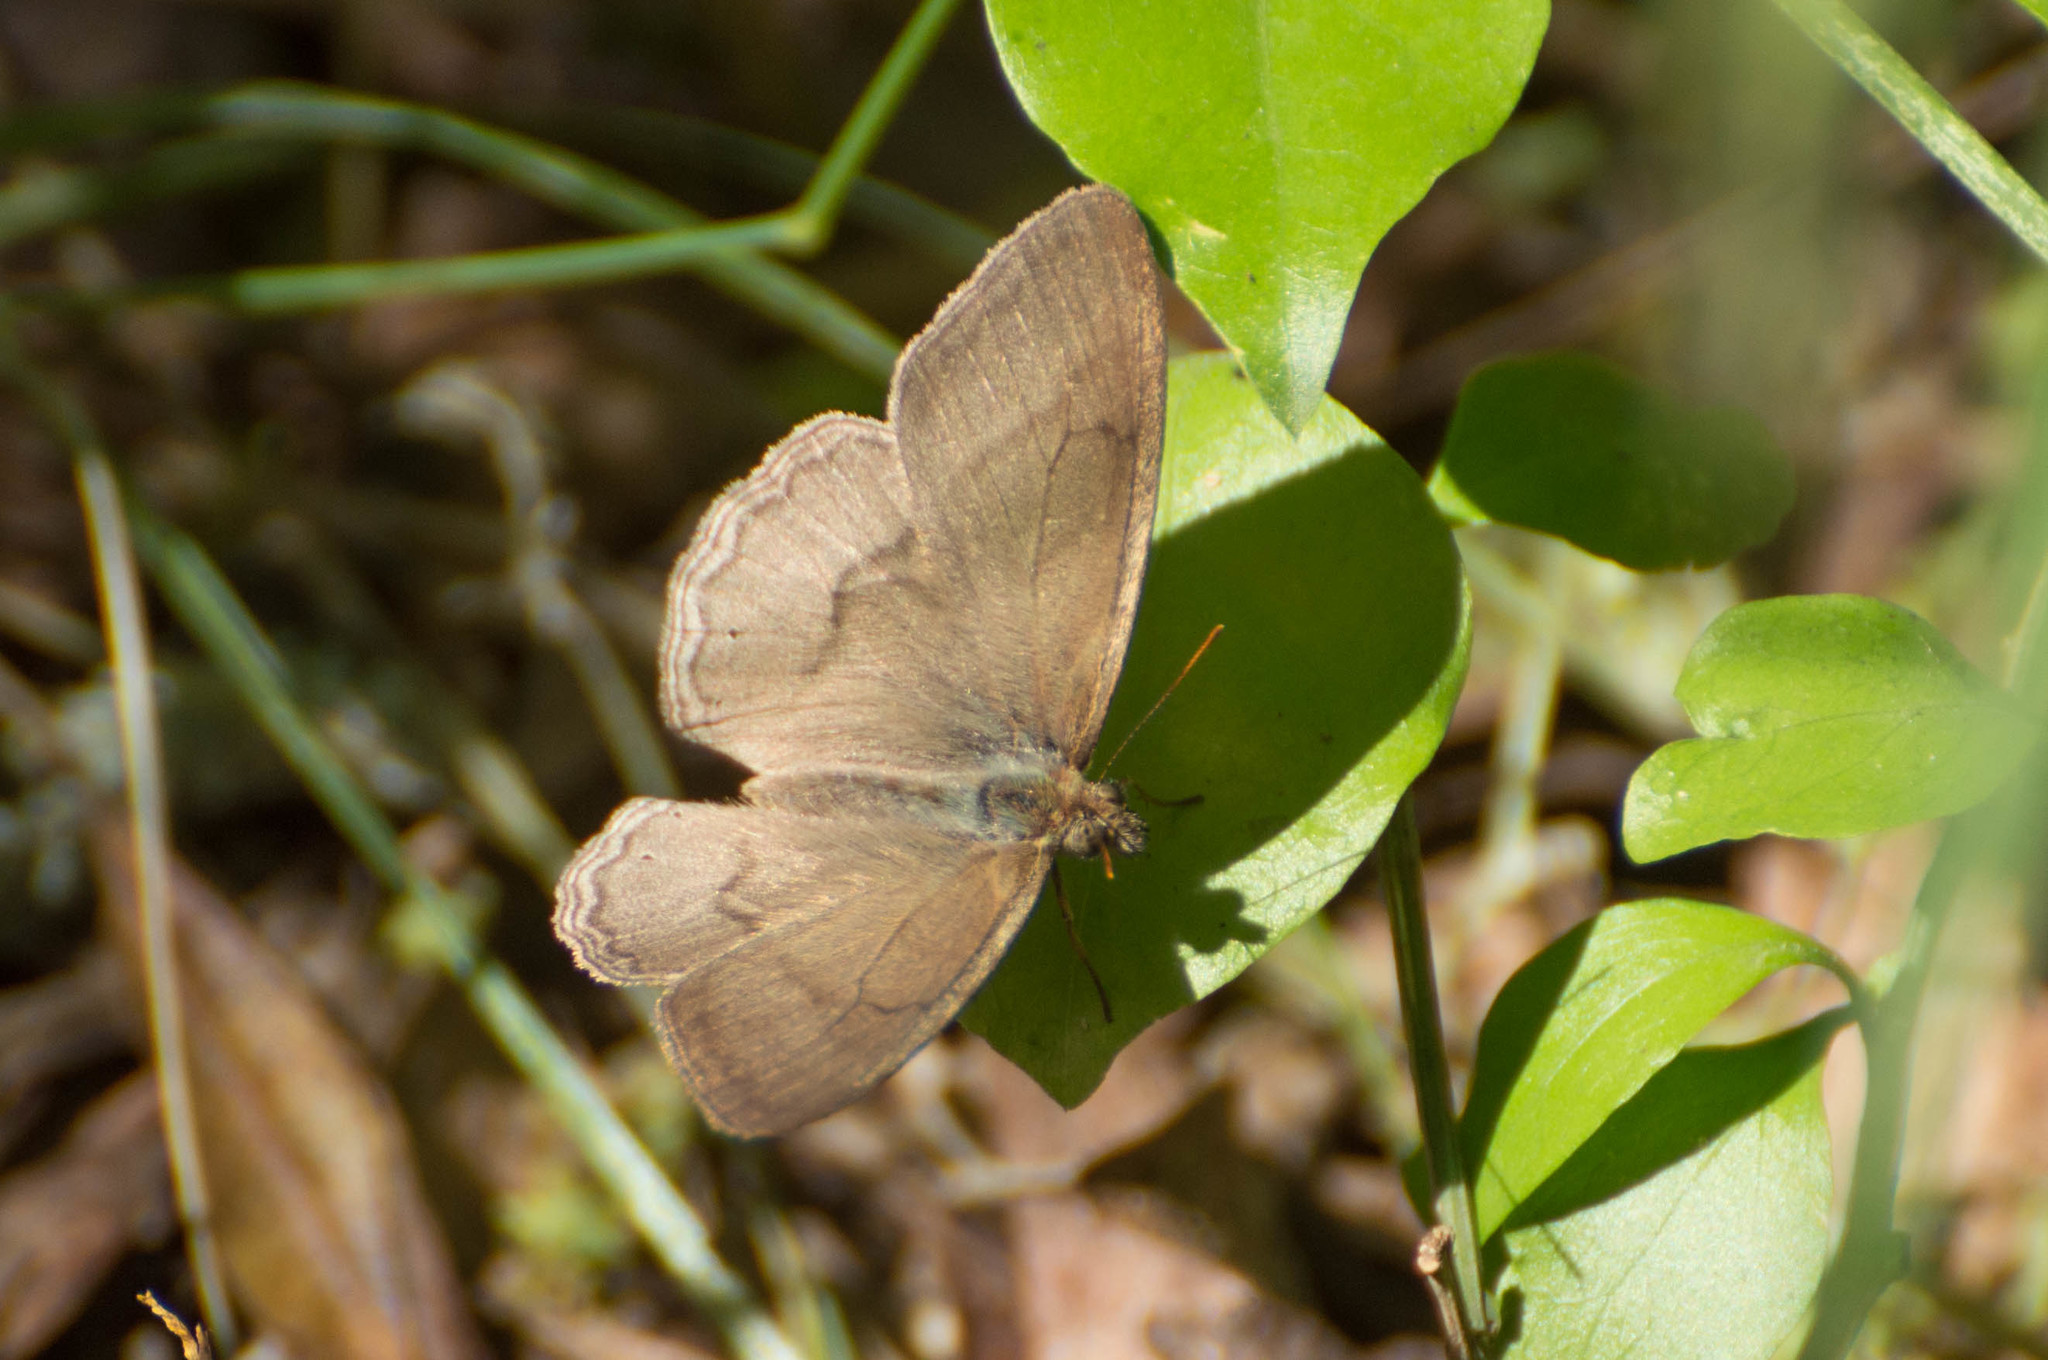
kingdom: Animalia
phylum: Arthropoda
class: Insecta
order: Lepidoptera
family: Nymphalidae
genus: Paryphthimoides
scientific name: Paryphthimoides poltys
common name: Poltys satyr
